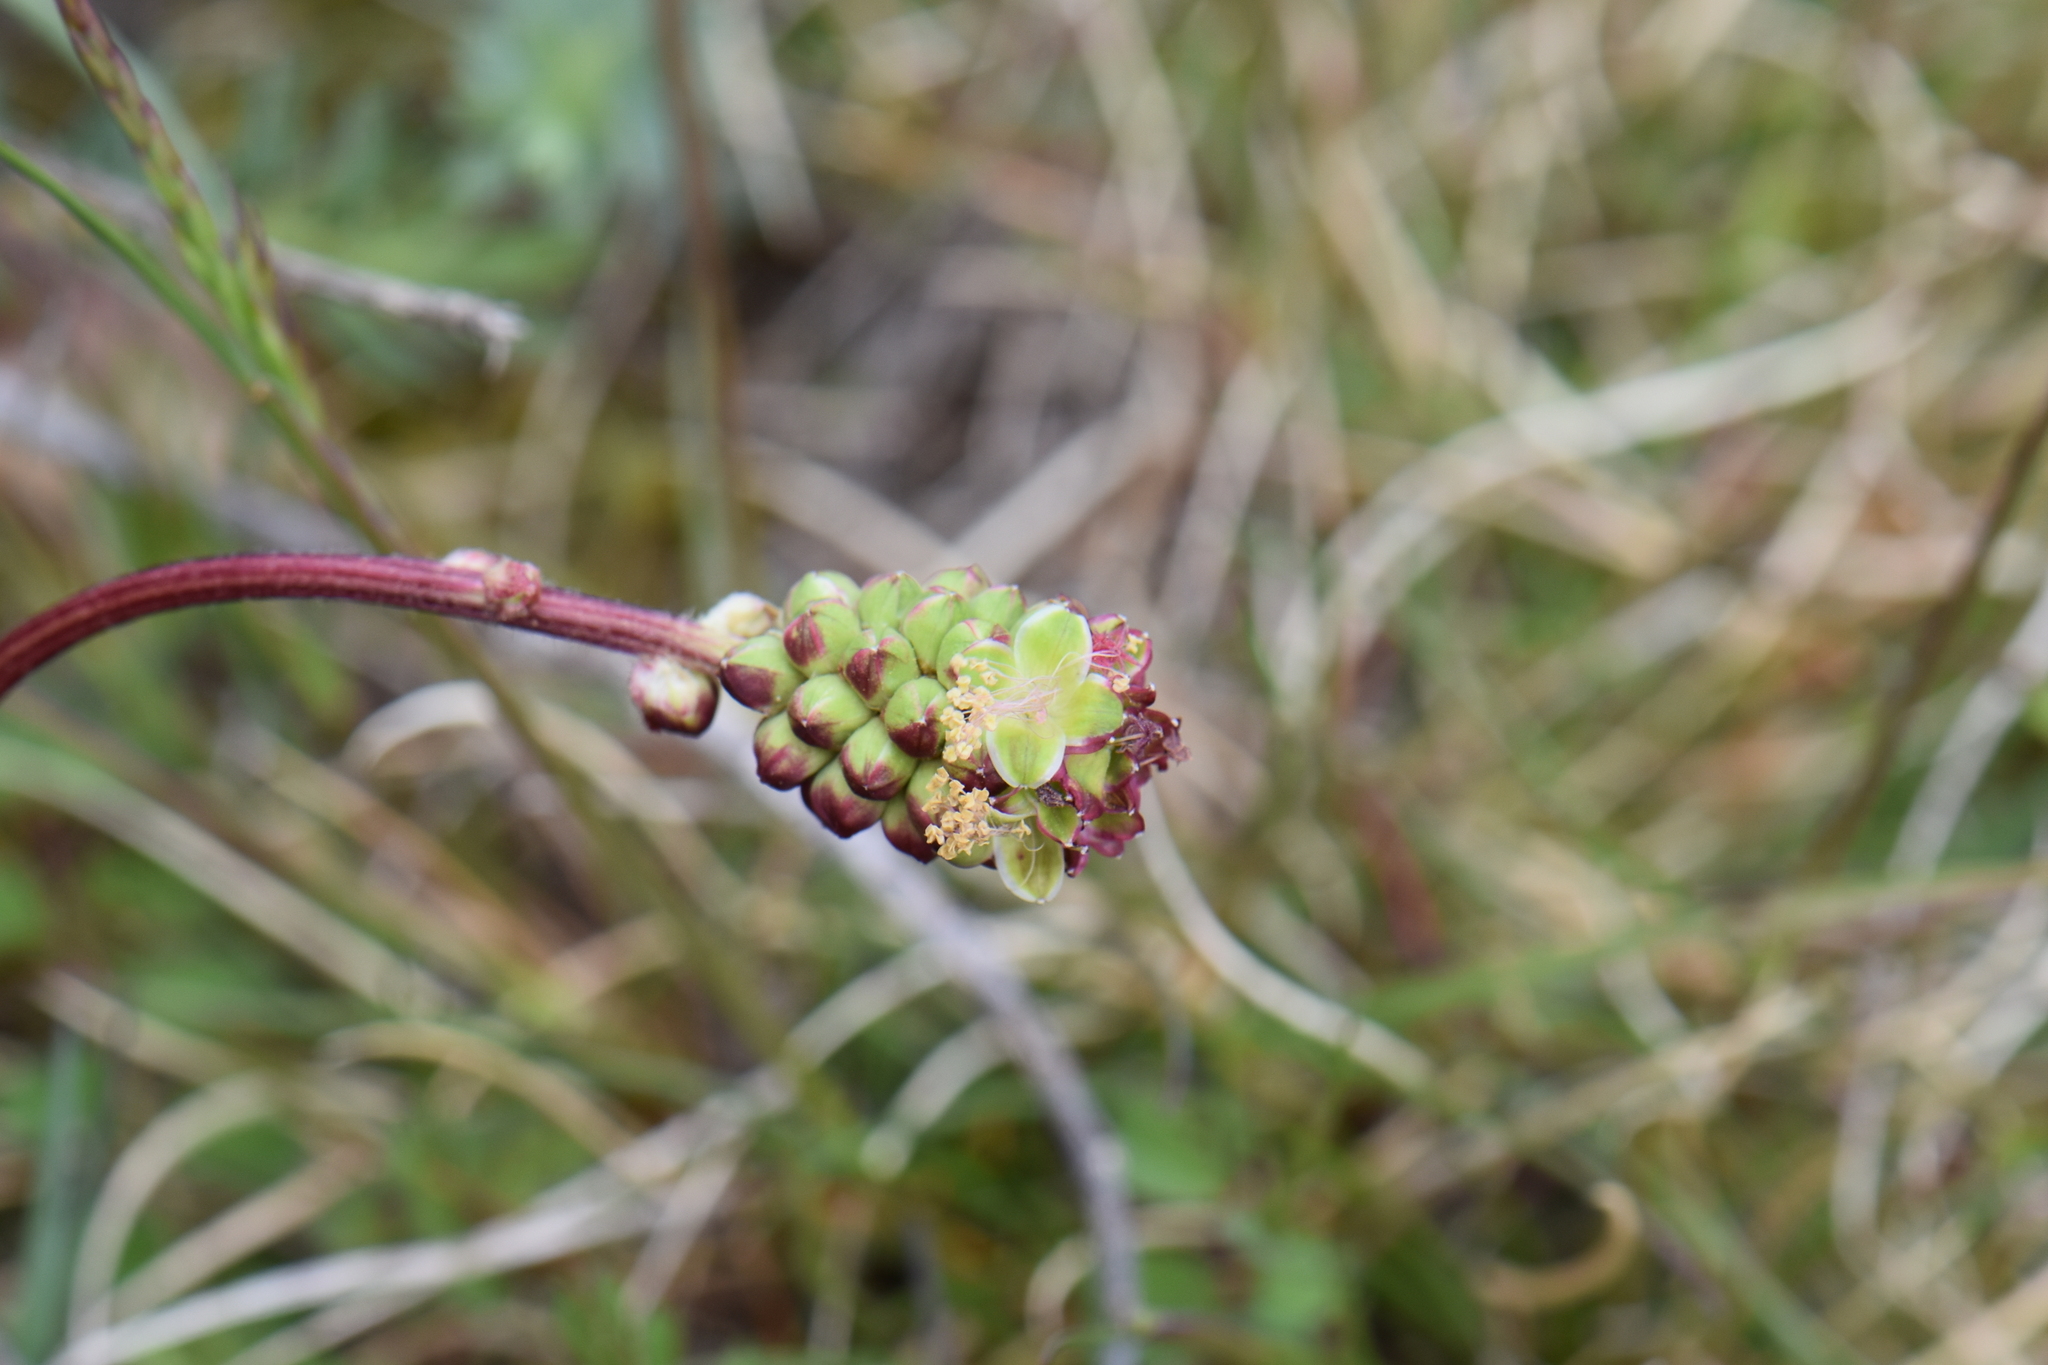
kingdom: Plantae
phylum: Tracheophyta
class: Magnoliopsida
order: Rosales
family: Rosaceae
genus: Poterium
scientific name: Poterium sanguisorba
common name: Salad burnet
